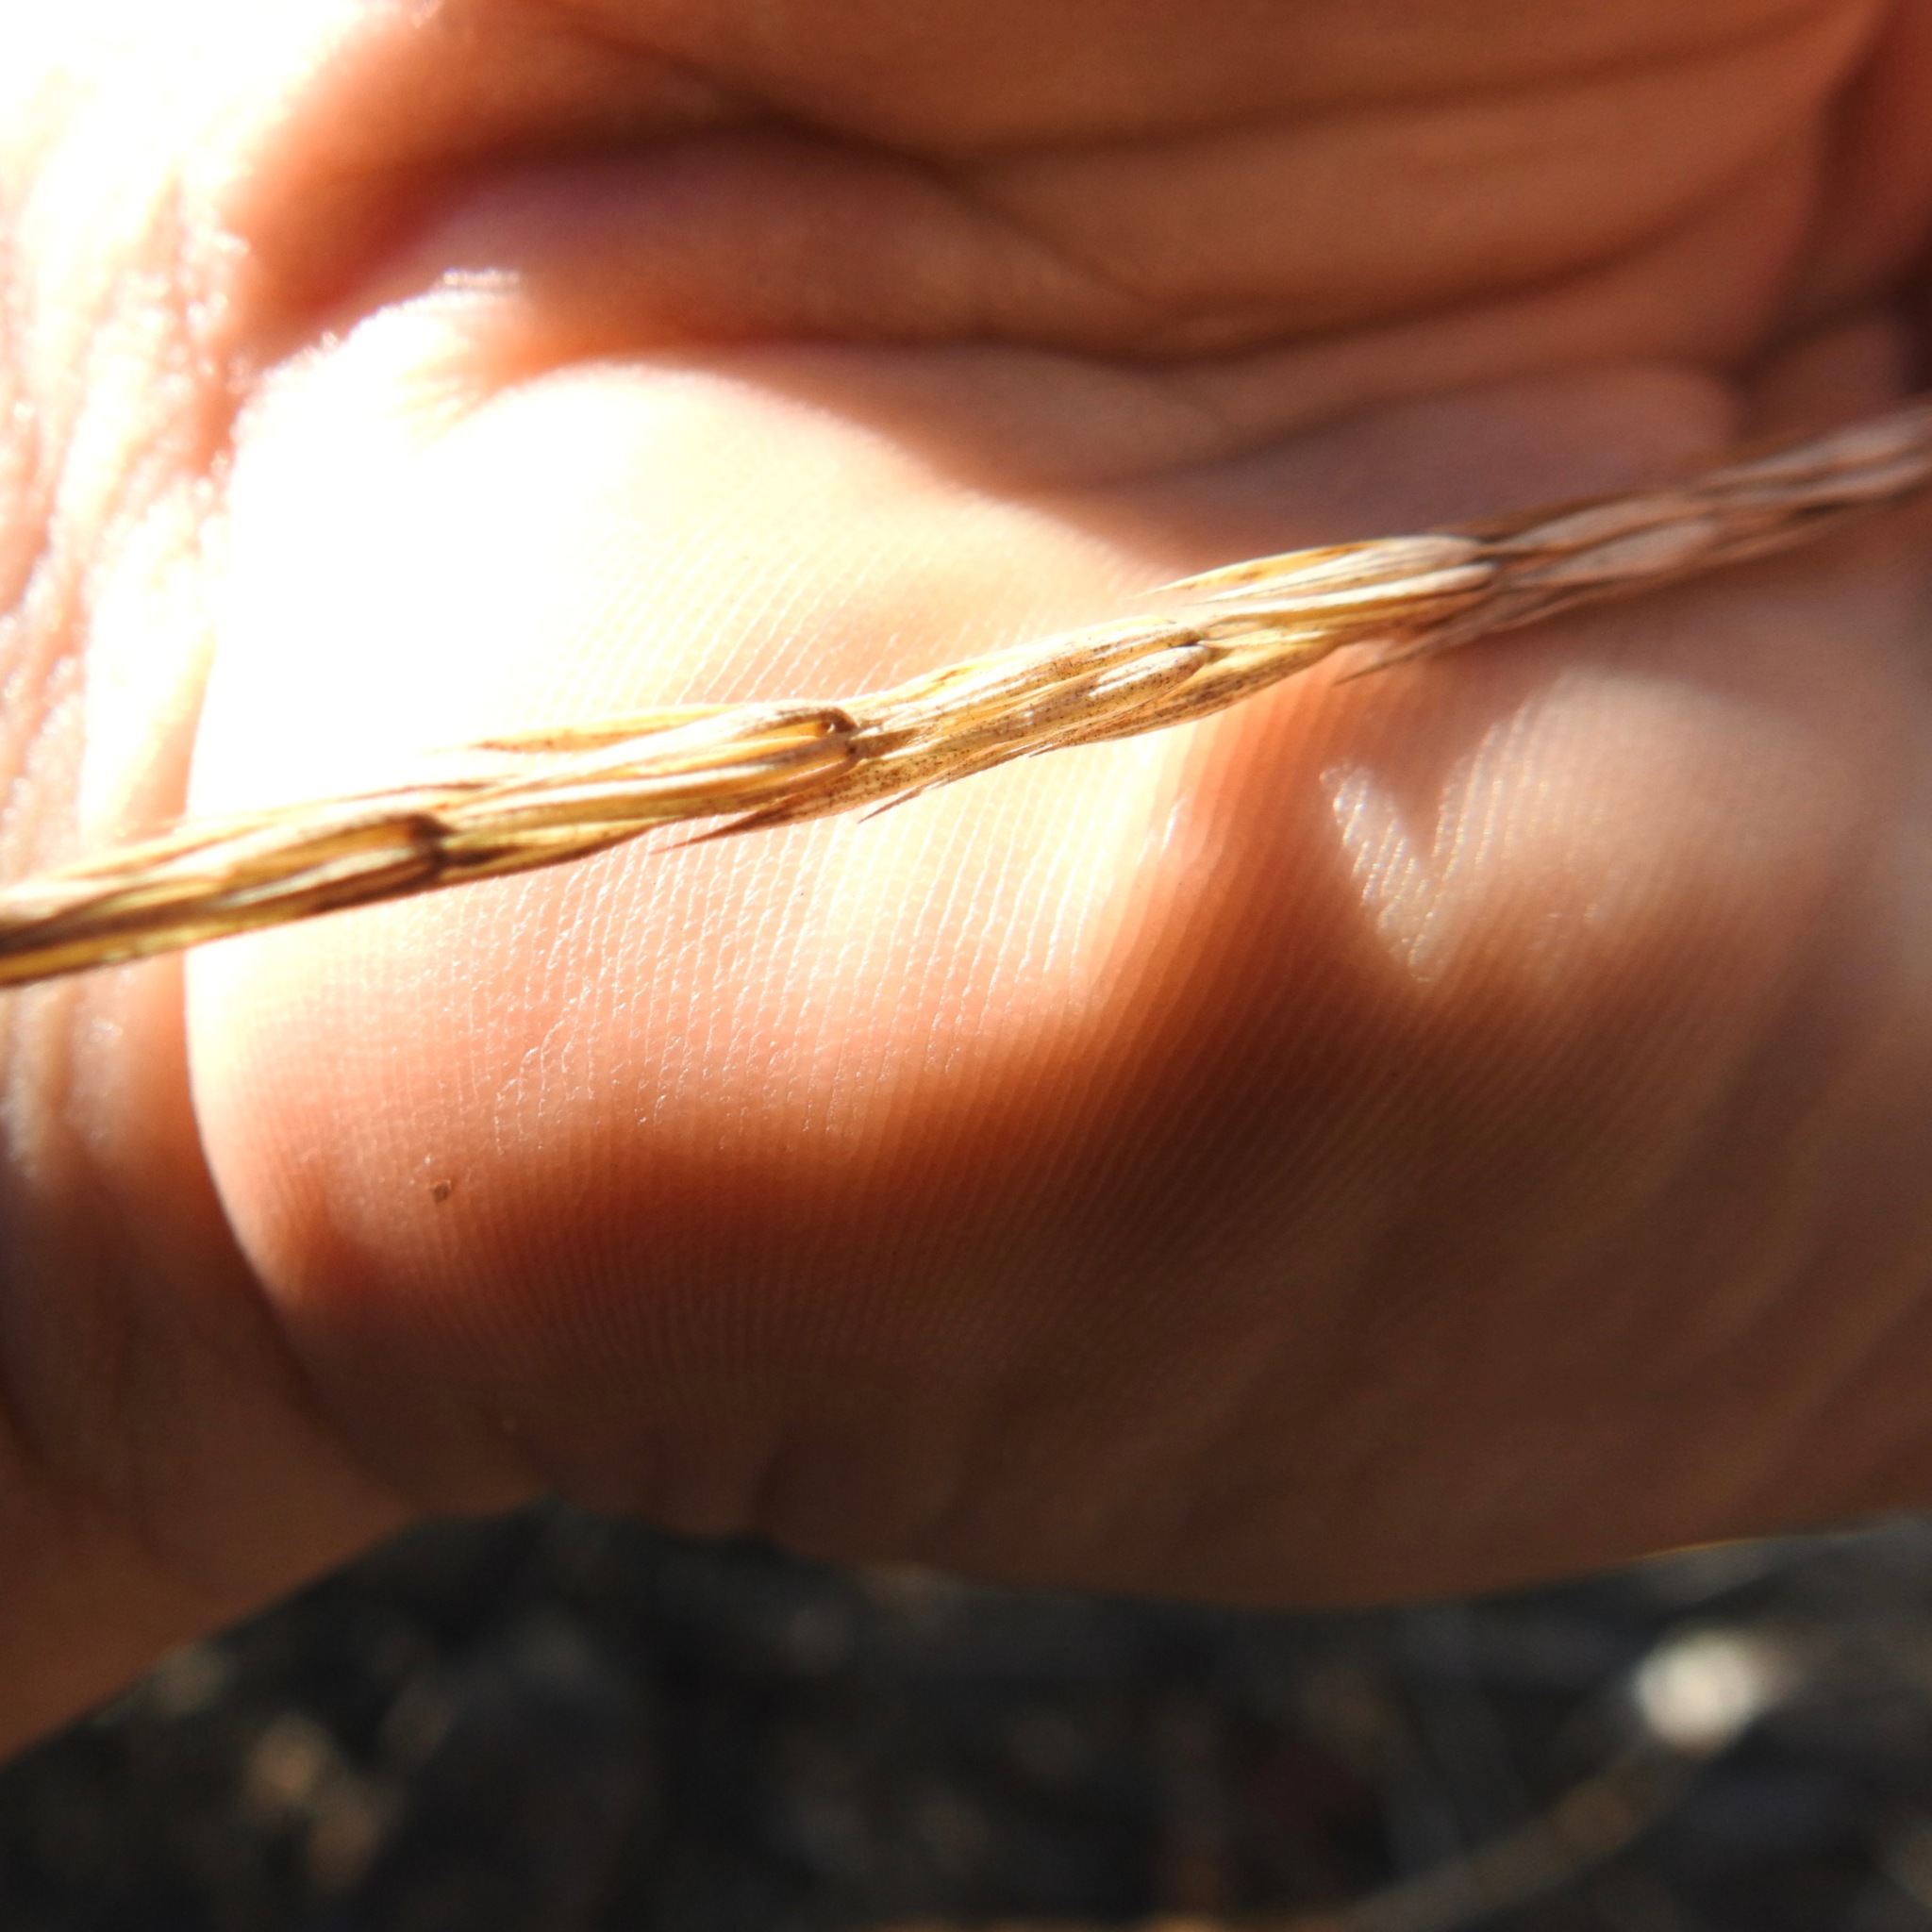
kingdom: Plantae
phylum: Tracheophyta
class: Liliopsida
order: Poales
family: Poaceae
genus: Elymus
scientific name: Elymus glaucus
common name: Blue wild rye
